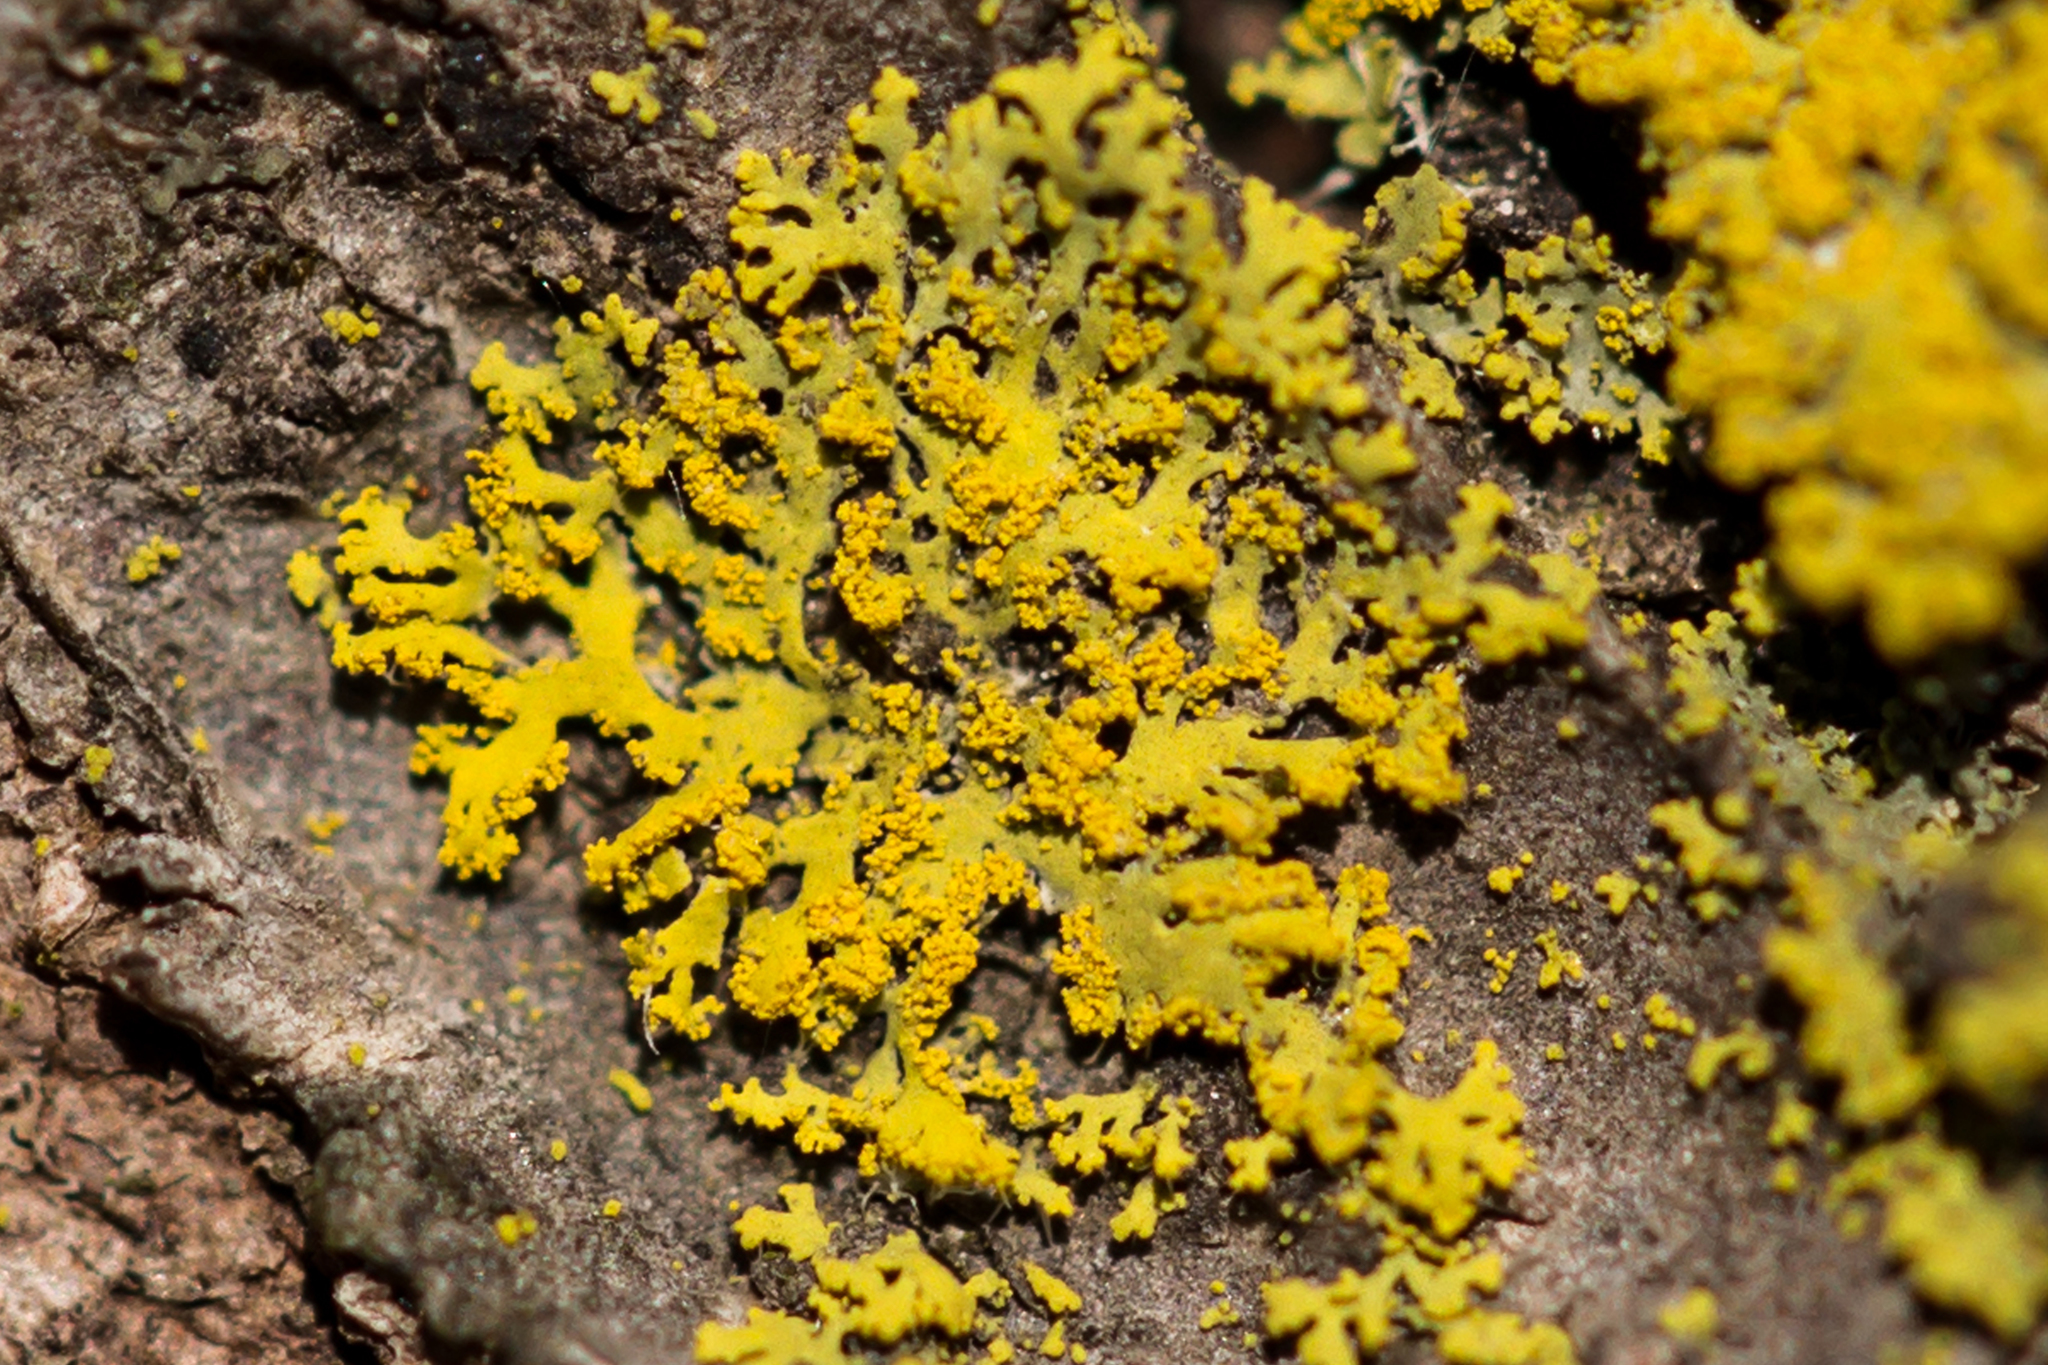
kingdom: Fungi
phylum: Ascomycota
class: Candelariomycetes
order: Candelariales
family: Candelariaceae
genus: Candelaria
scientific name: Candelaria concolor
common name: Candleflame lichen
